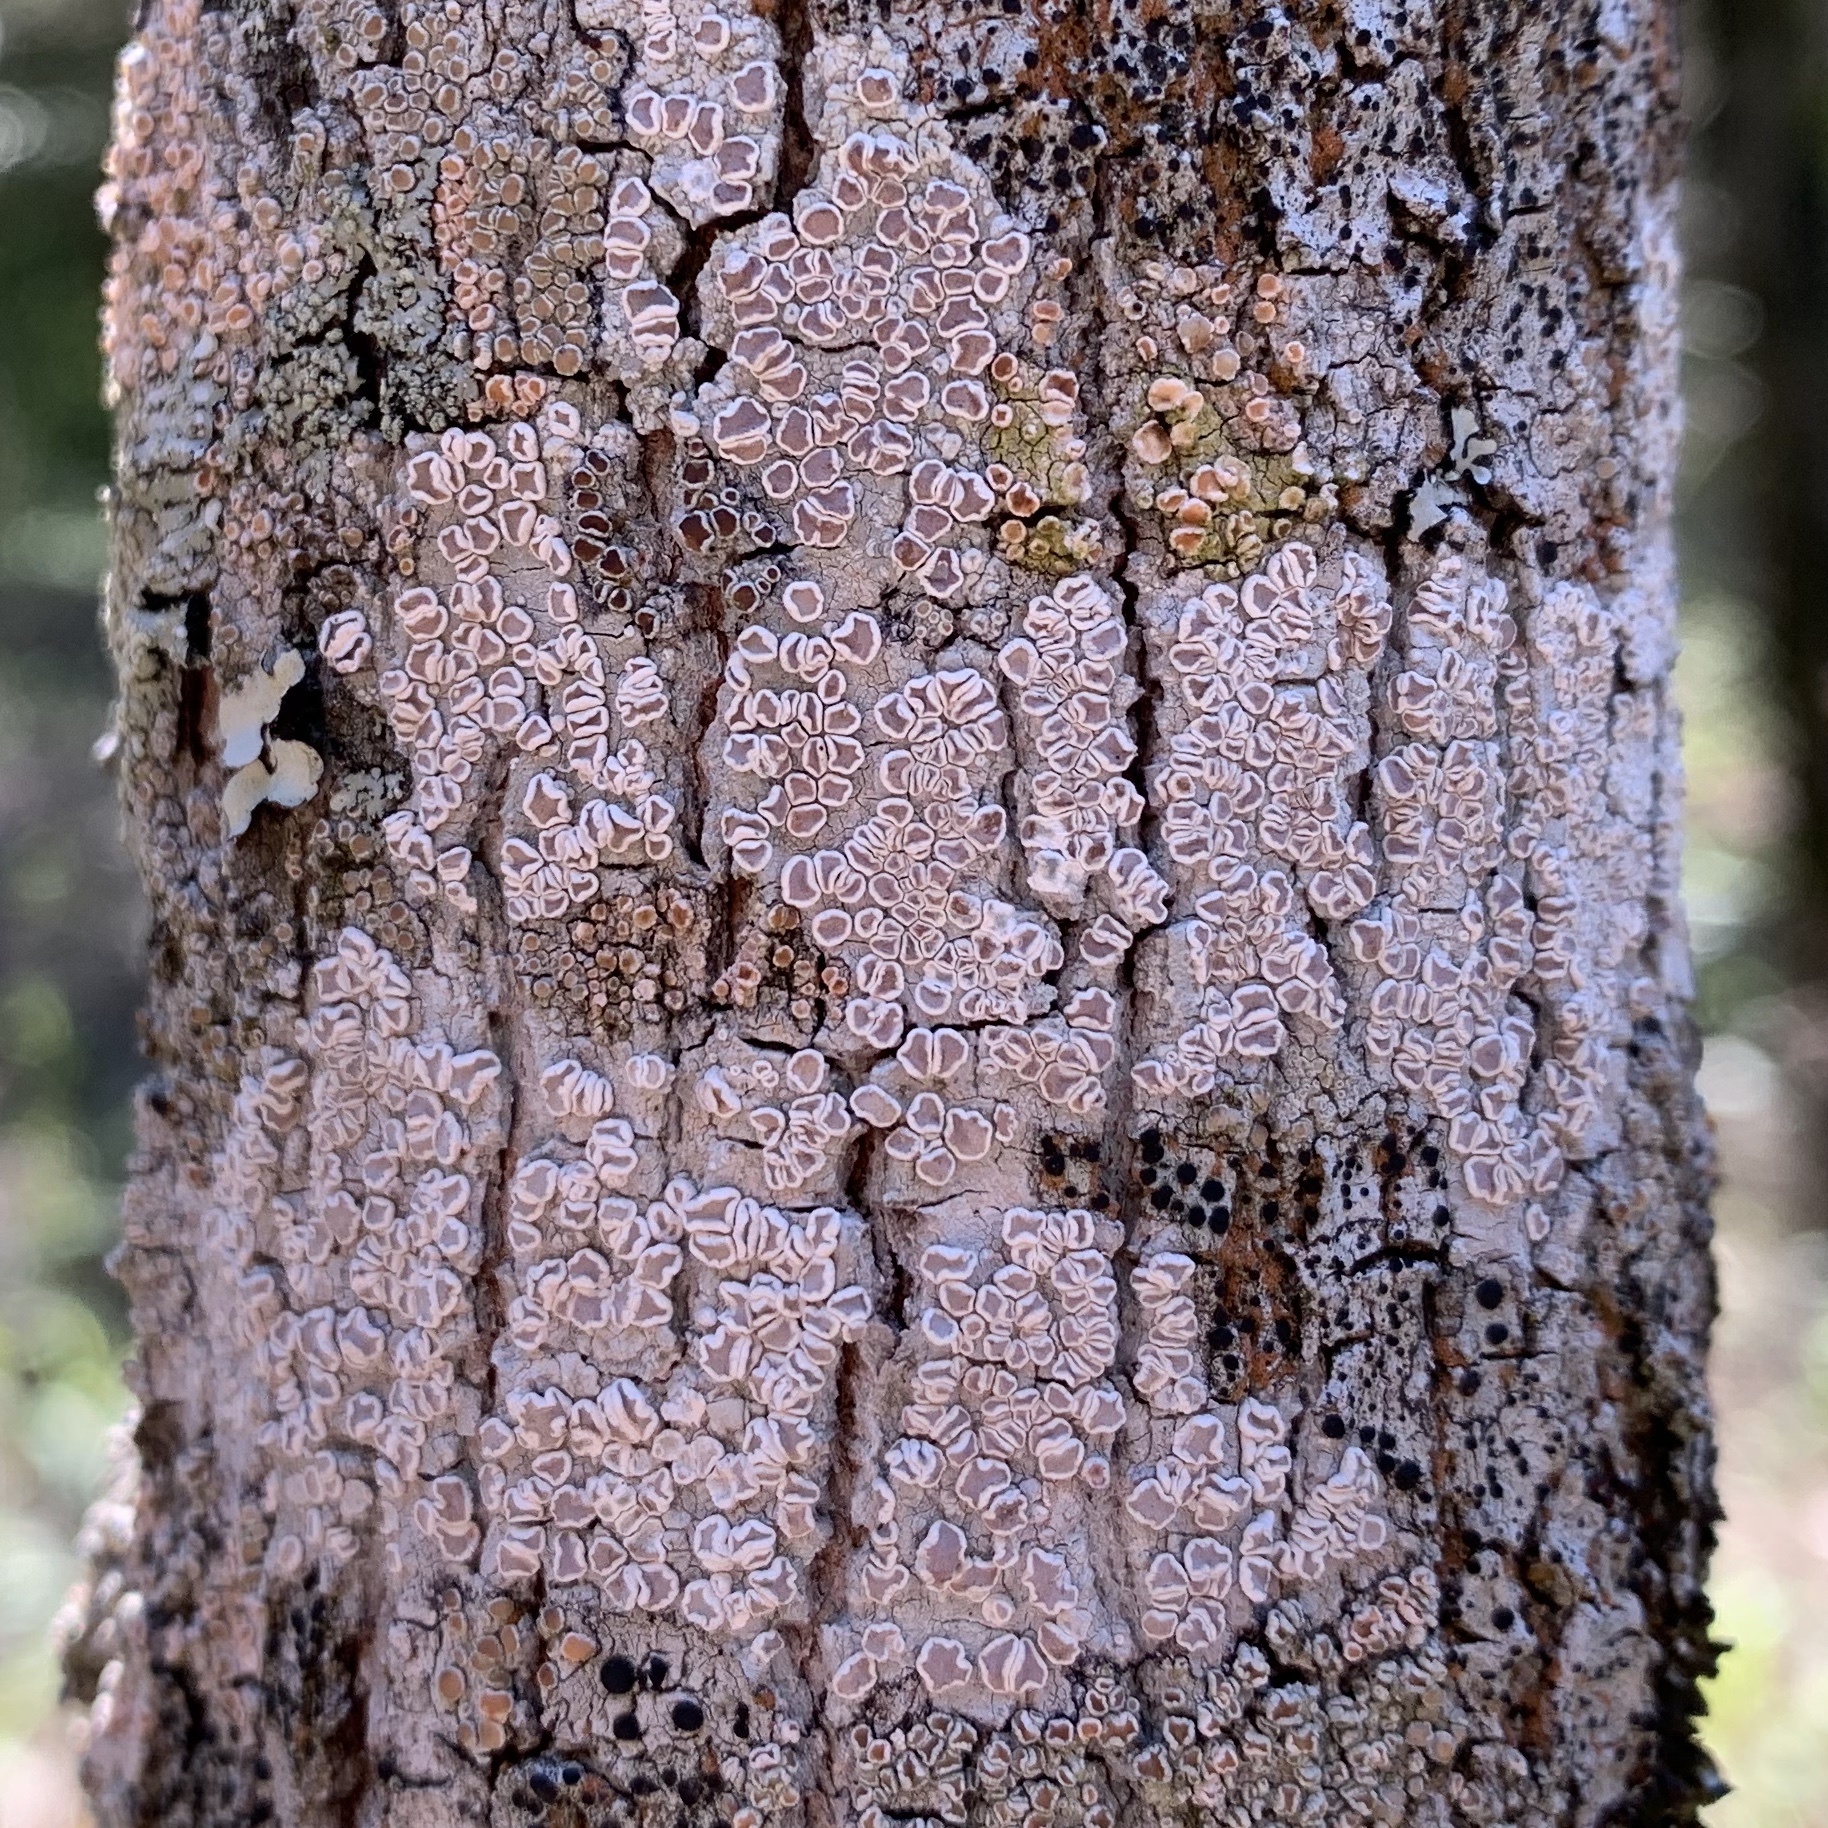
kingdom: Fungi
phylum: Ascomycota
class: Lecanoromycetes
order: Lecanorales
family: Lecanoraceae
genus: Lecanora
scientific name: Lecanora protervula
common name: Lesser dust my discs
